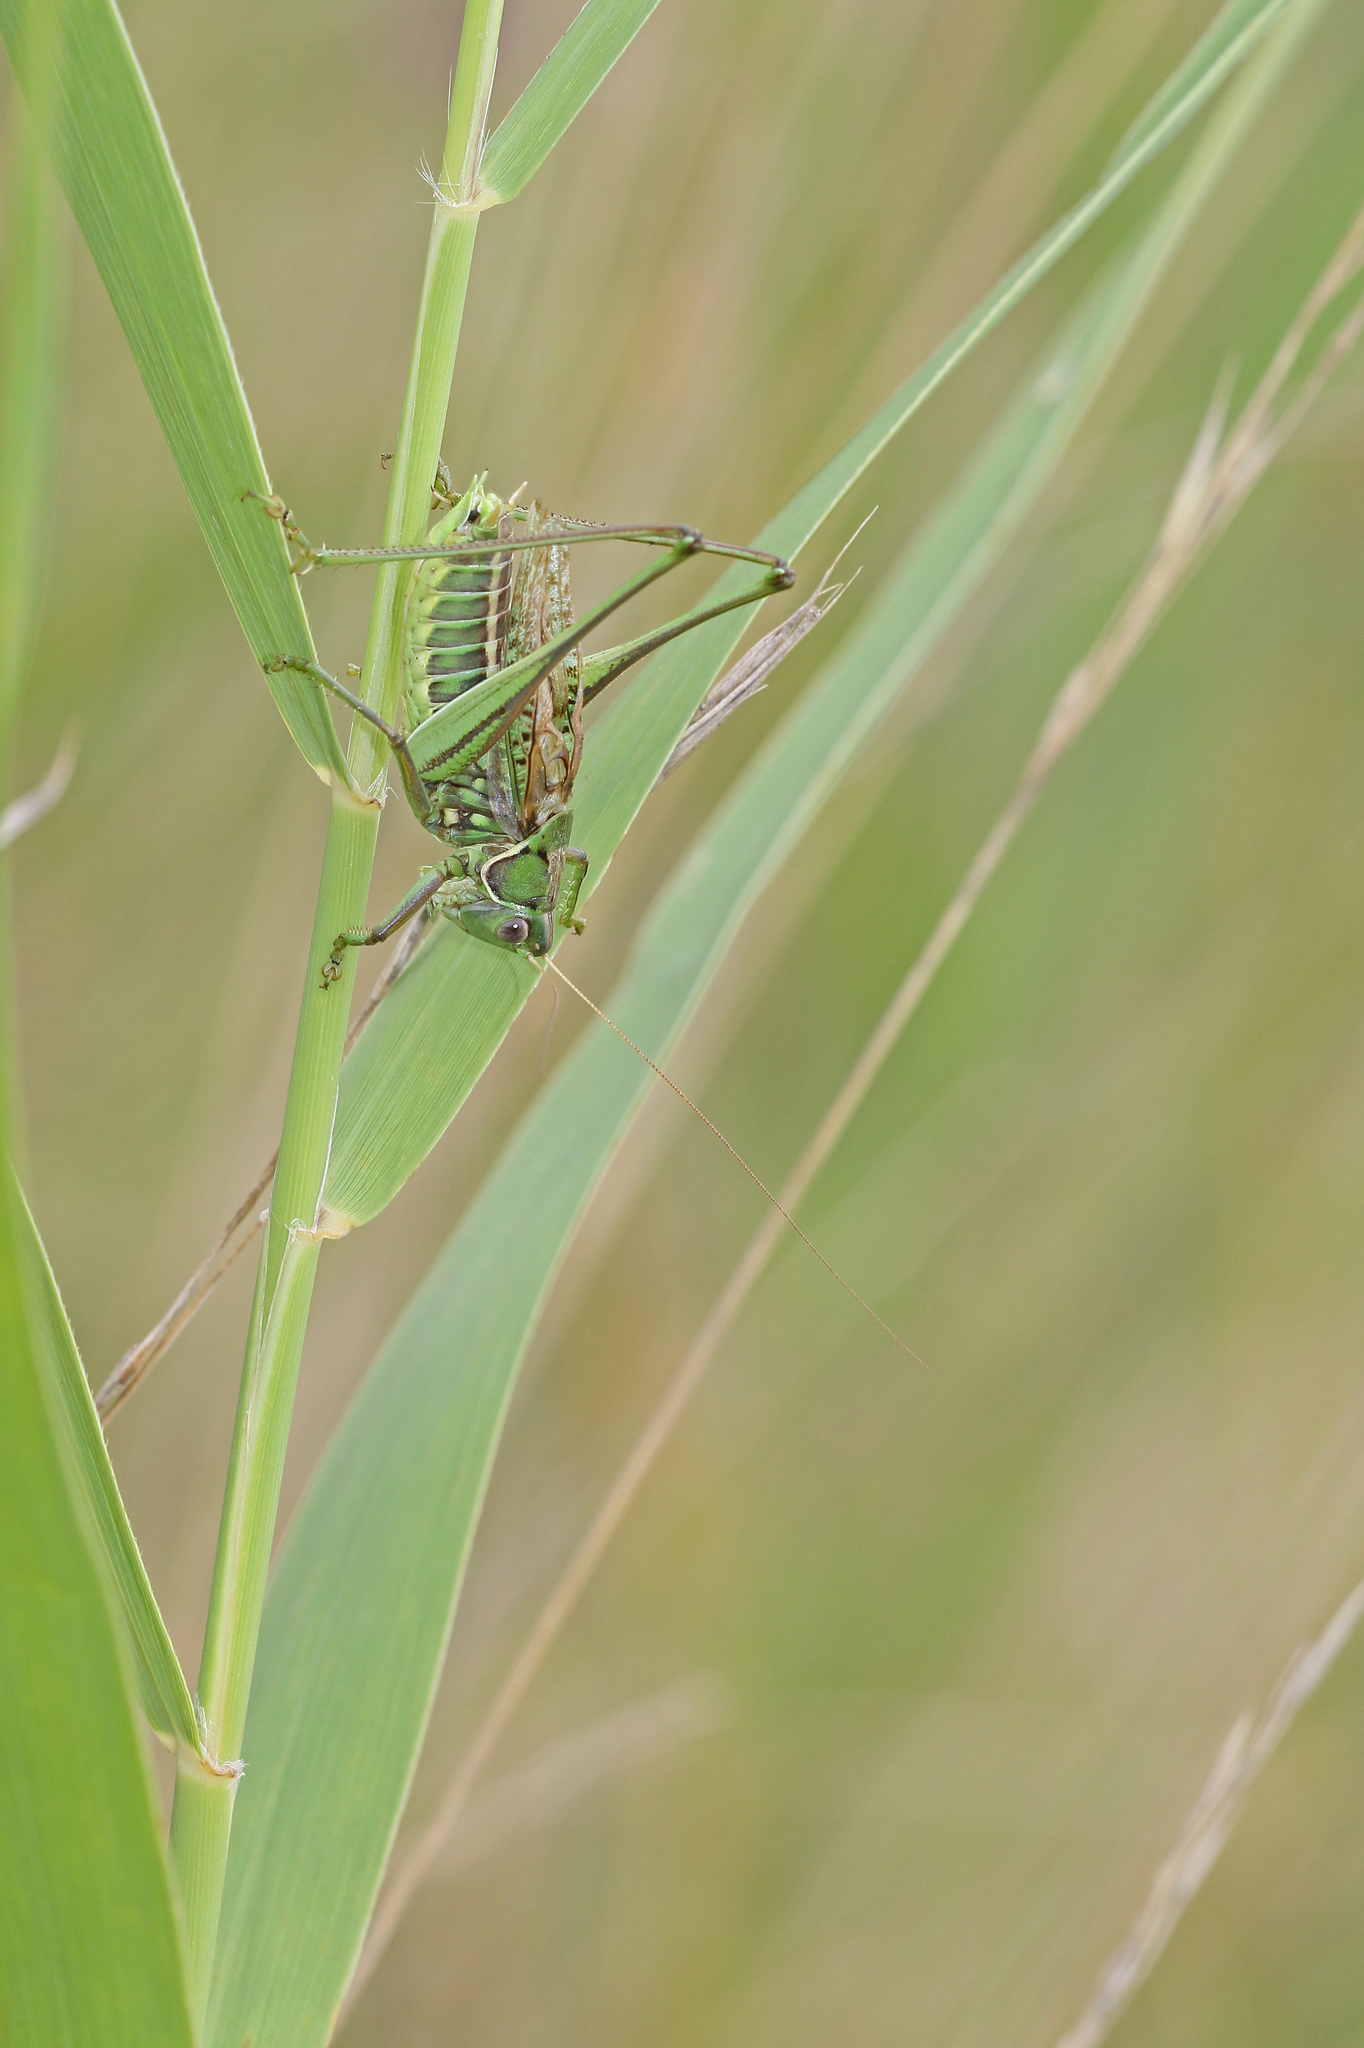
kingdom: Animalia
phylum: Arthropoda
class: Insecta
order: Orthoptera
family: Tettigoniidae
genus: Gampsocleis
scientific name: Gampsocleis glabra
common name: Heath bushcricket
